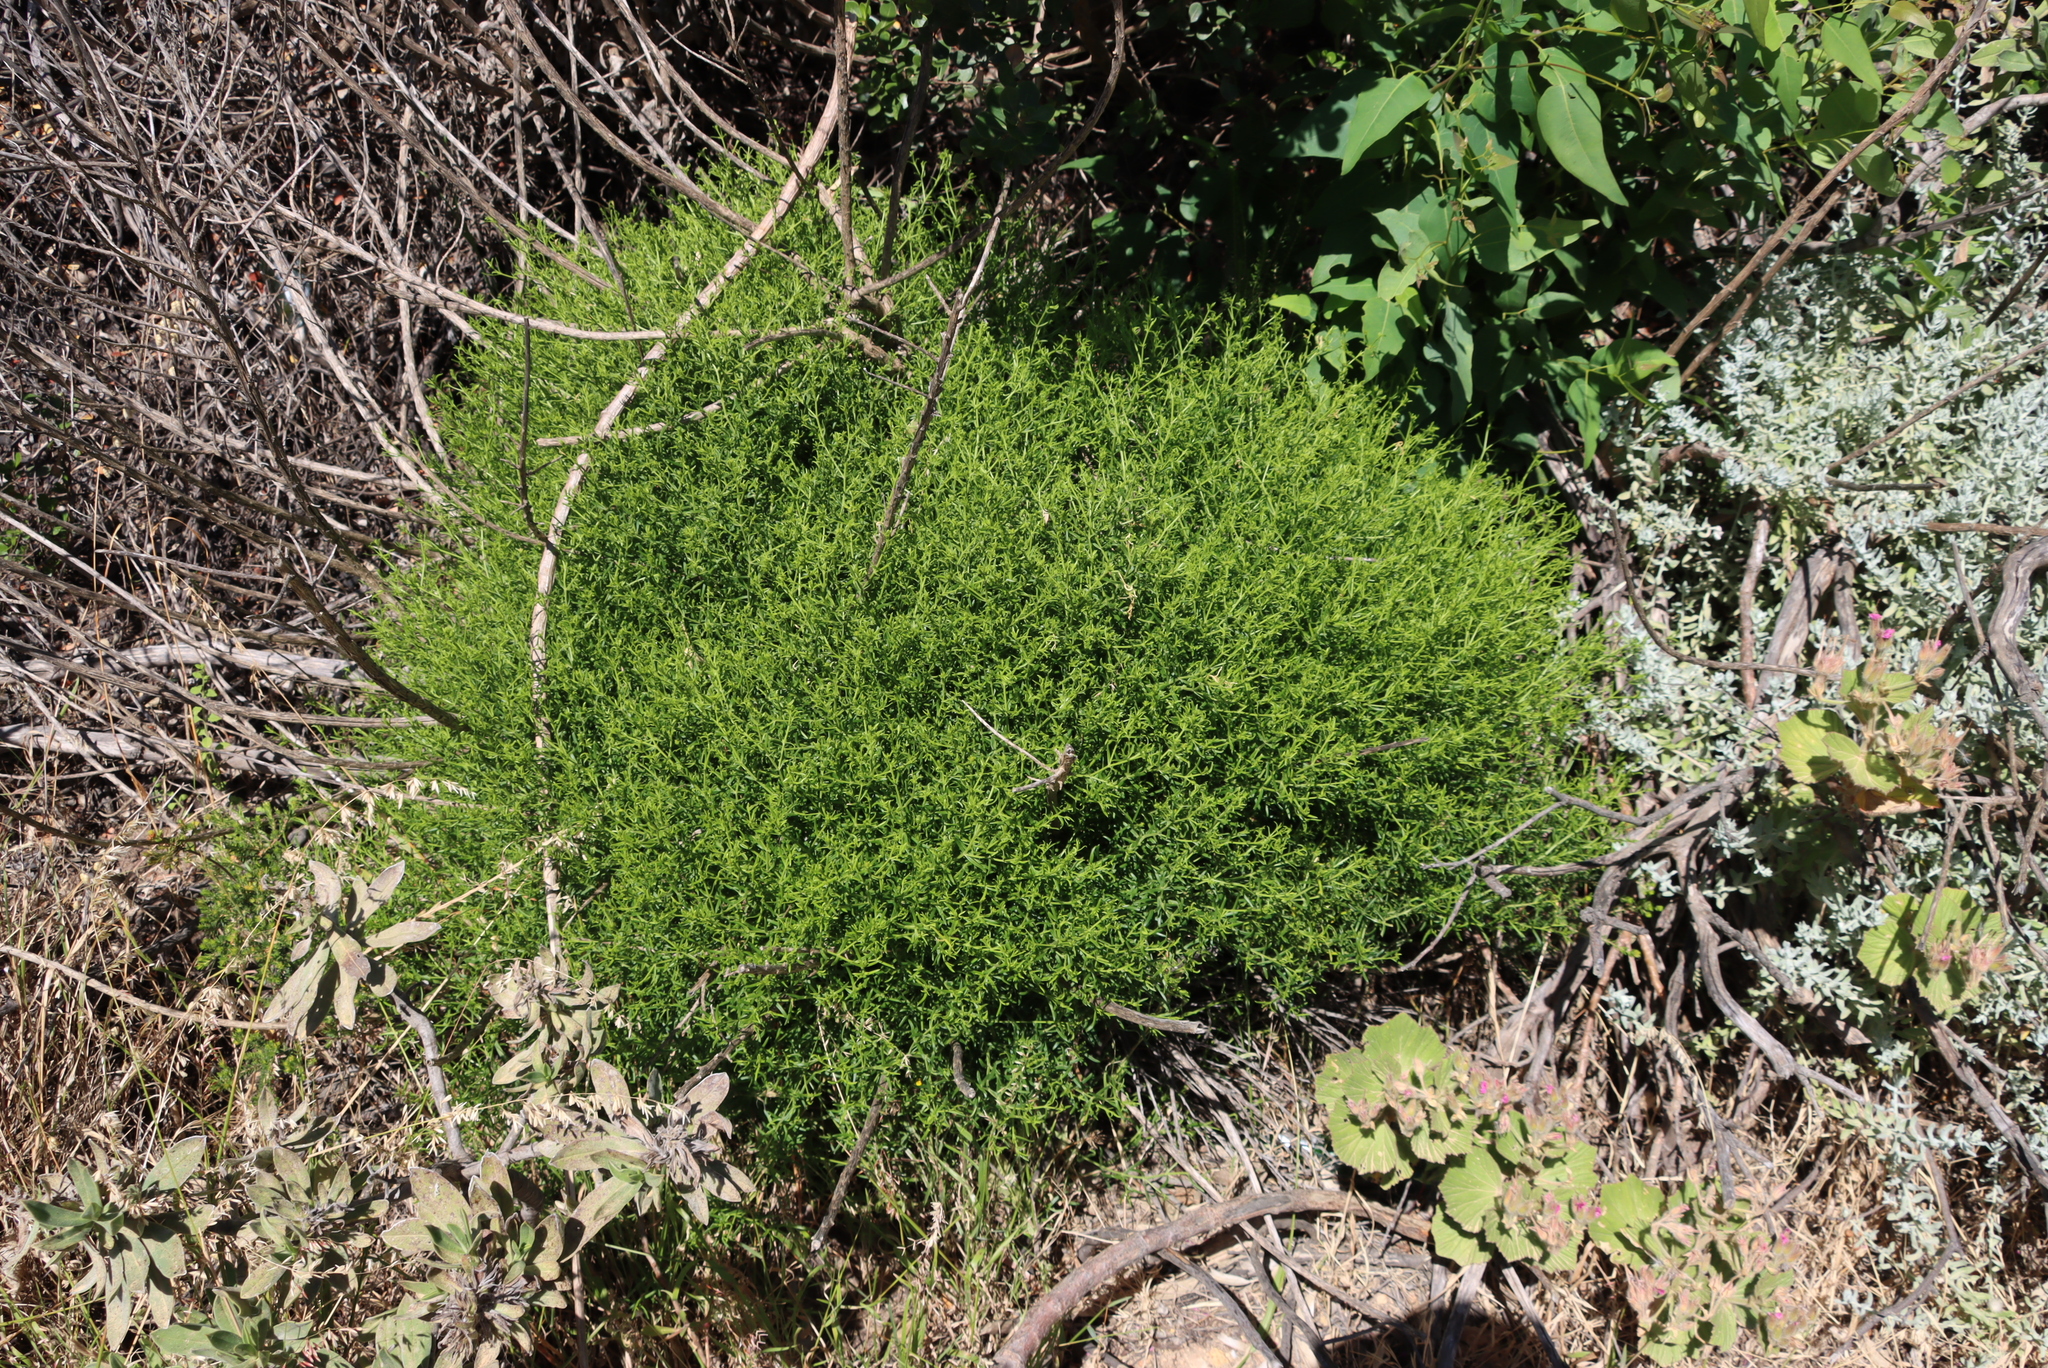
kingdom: Plantae
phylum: Tracheophyta
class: Magnoliopsida
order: Gentianales
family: Gentianaceae
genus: Chironia
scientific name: Chironia baccifera
